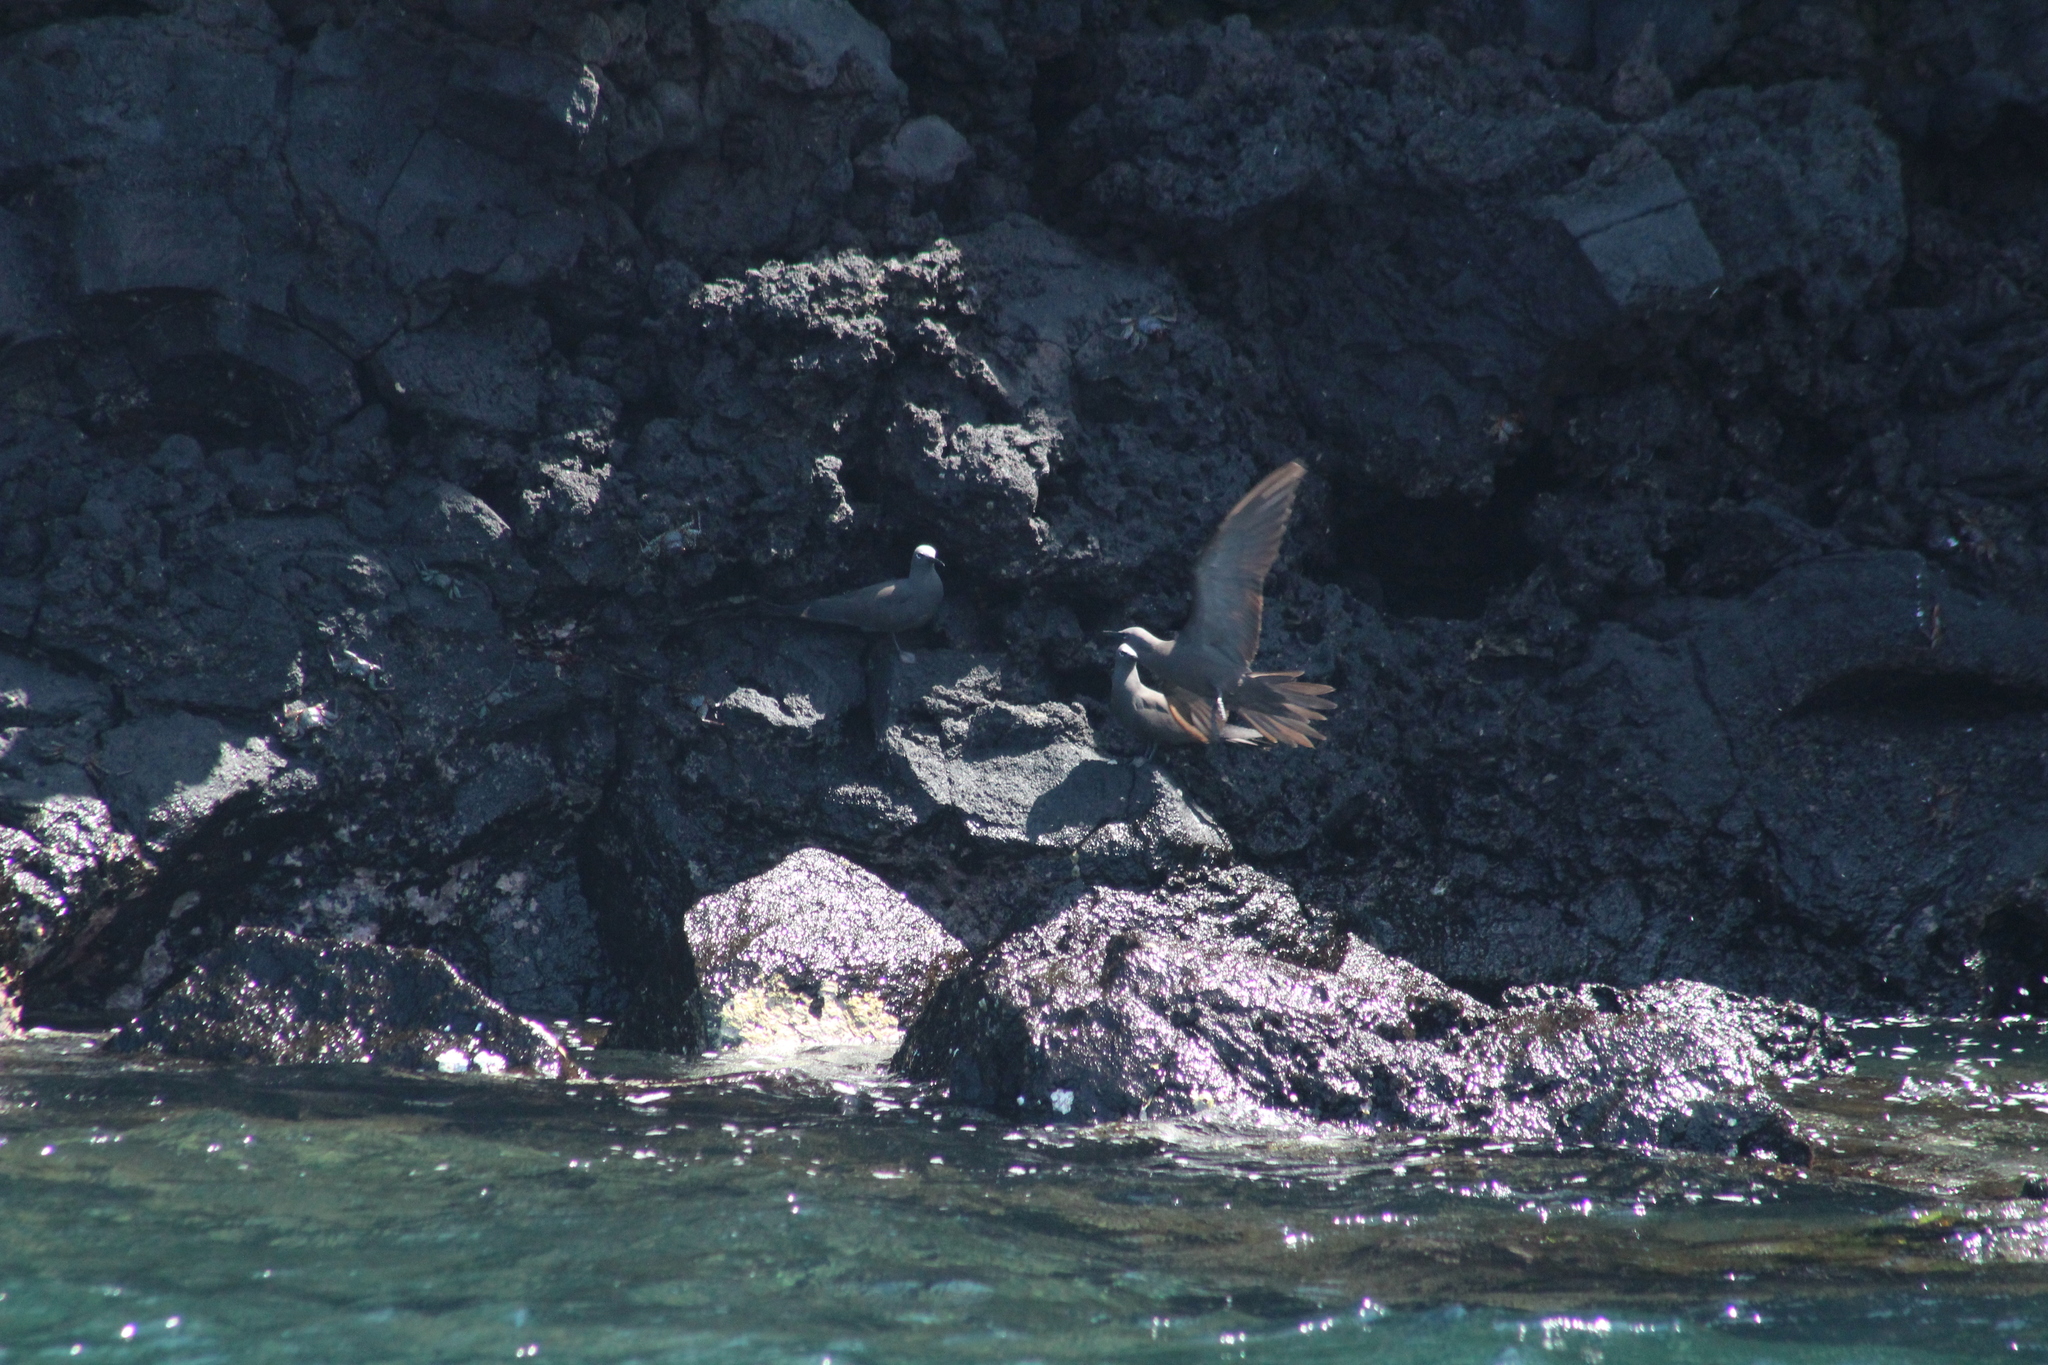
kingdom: Animalia
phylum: Chordata
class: Aves
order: Charadriiformes
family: Laridae
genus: Anous
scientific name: Anous stolidus
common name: Brown noddy
